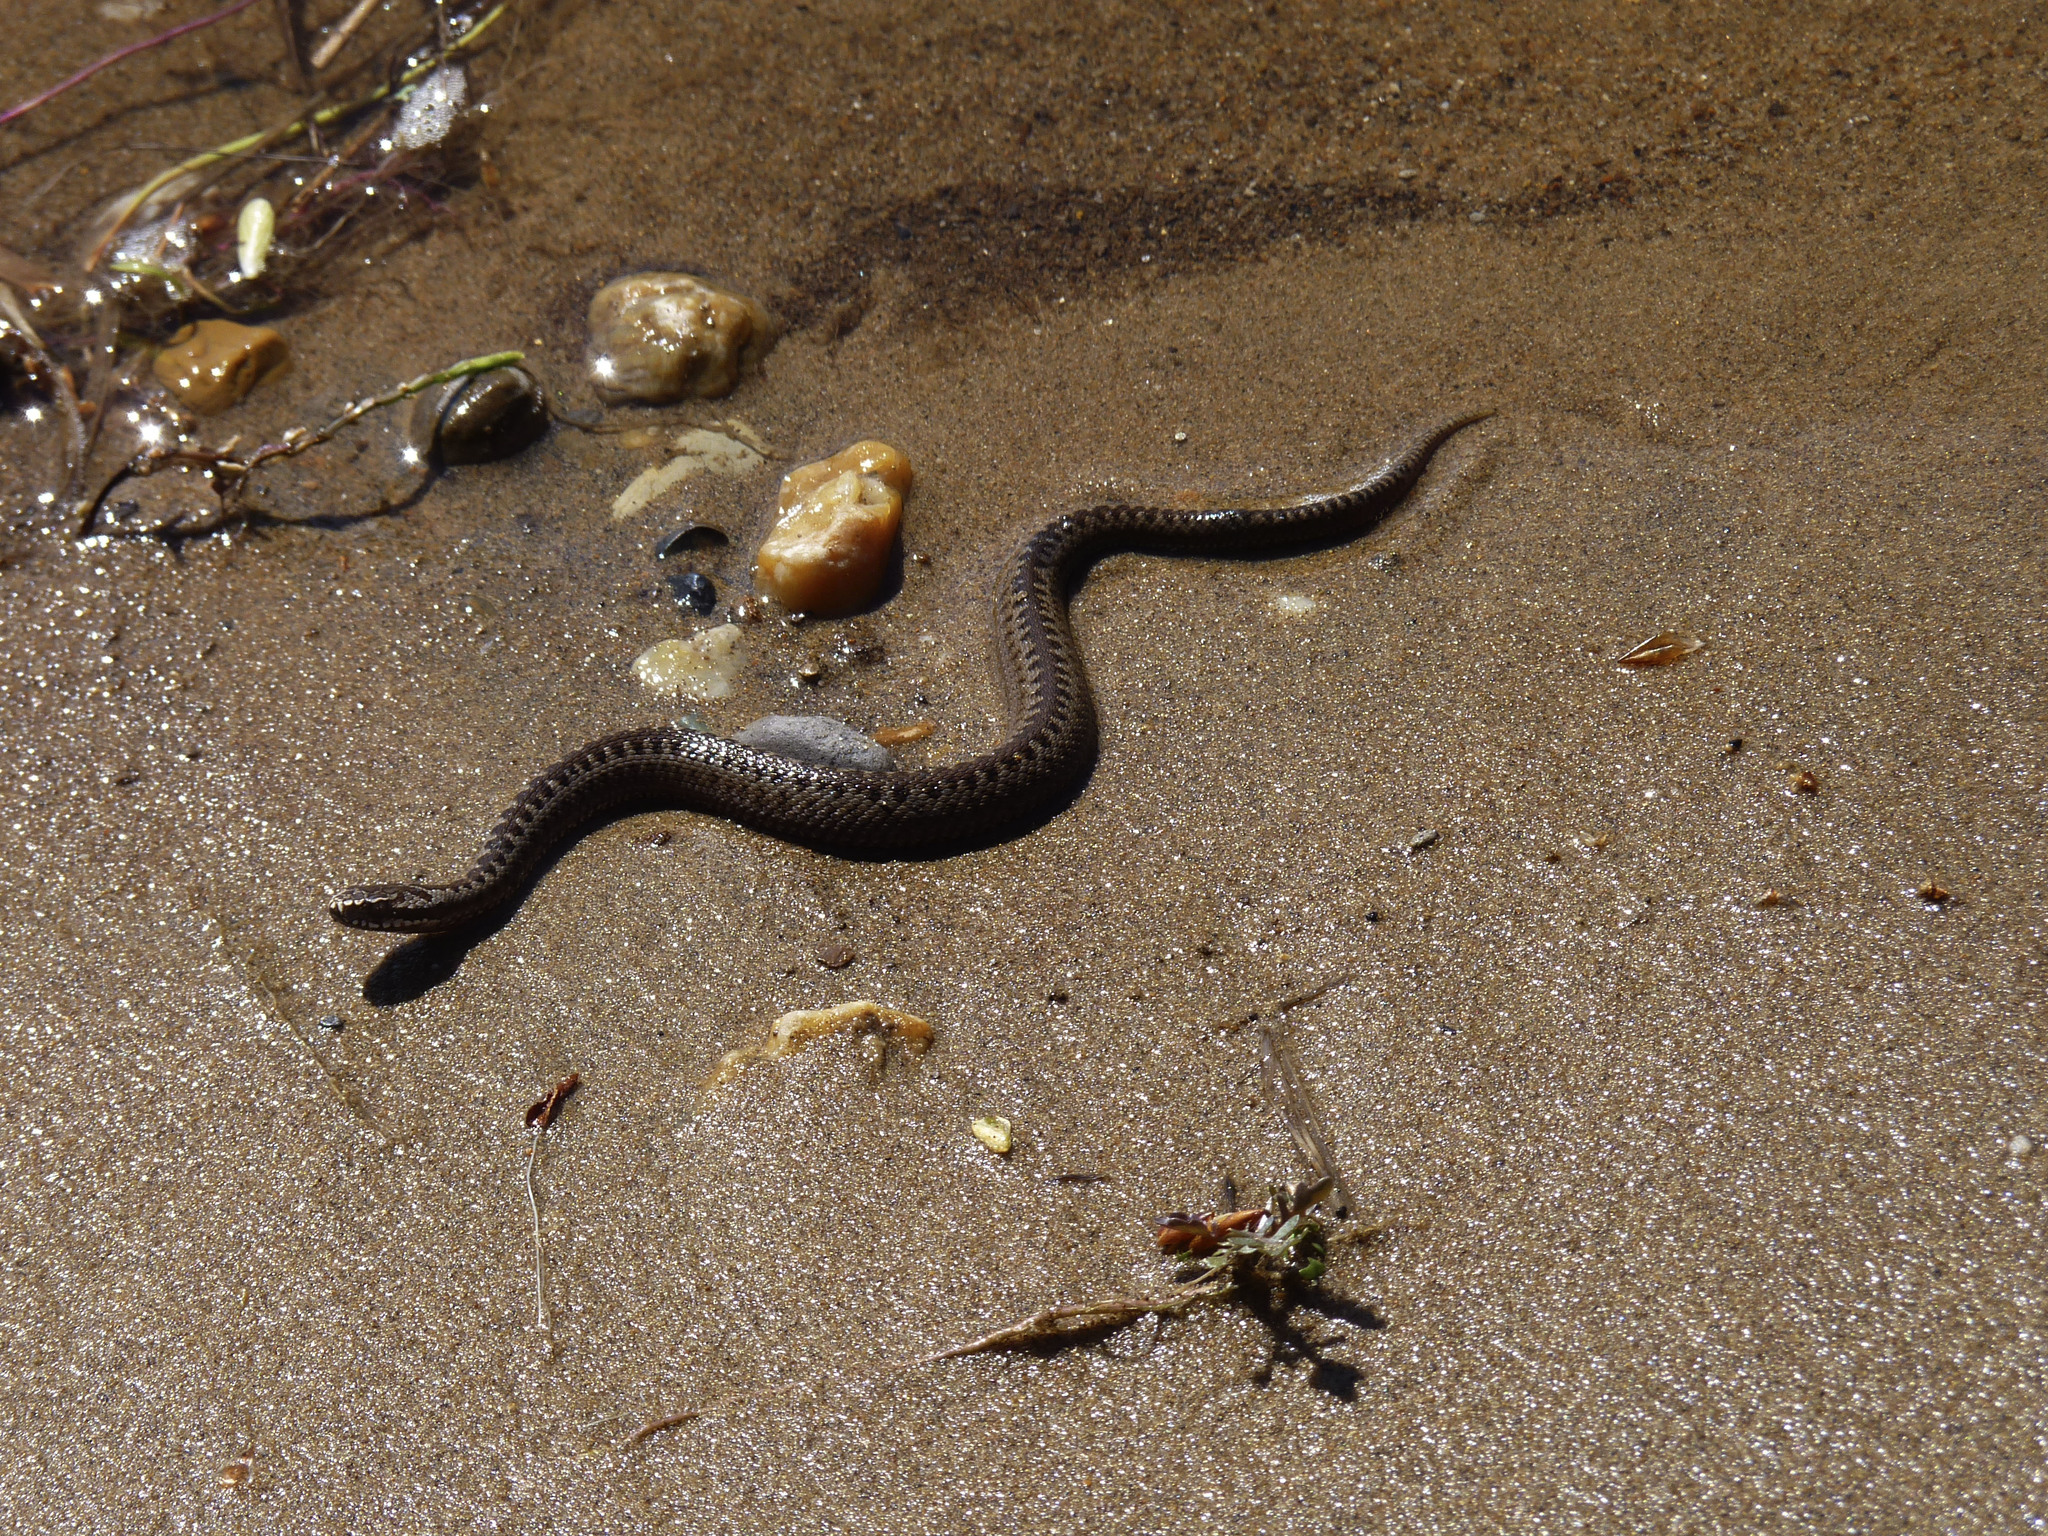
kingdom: Animalia
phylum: Chordata
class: Squamata
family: Viperidae
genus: Vipera
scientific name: Vipera berus
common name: Adder
